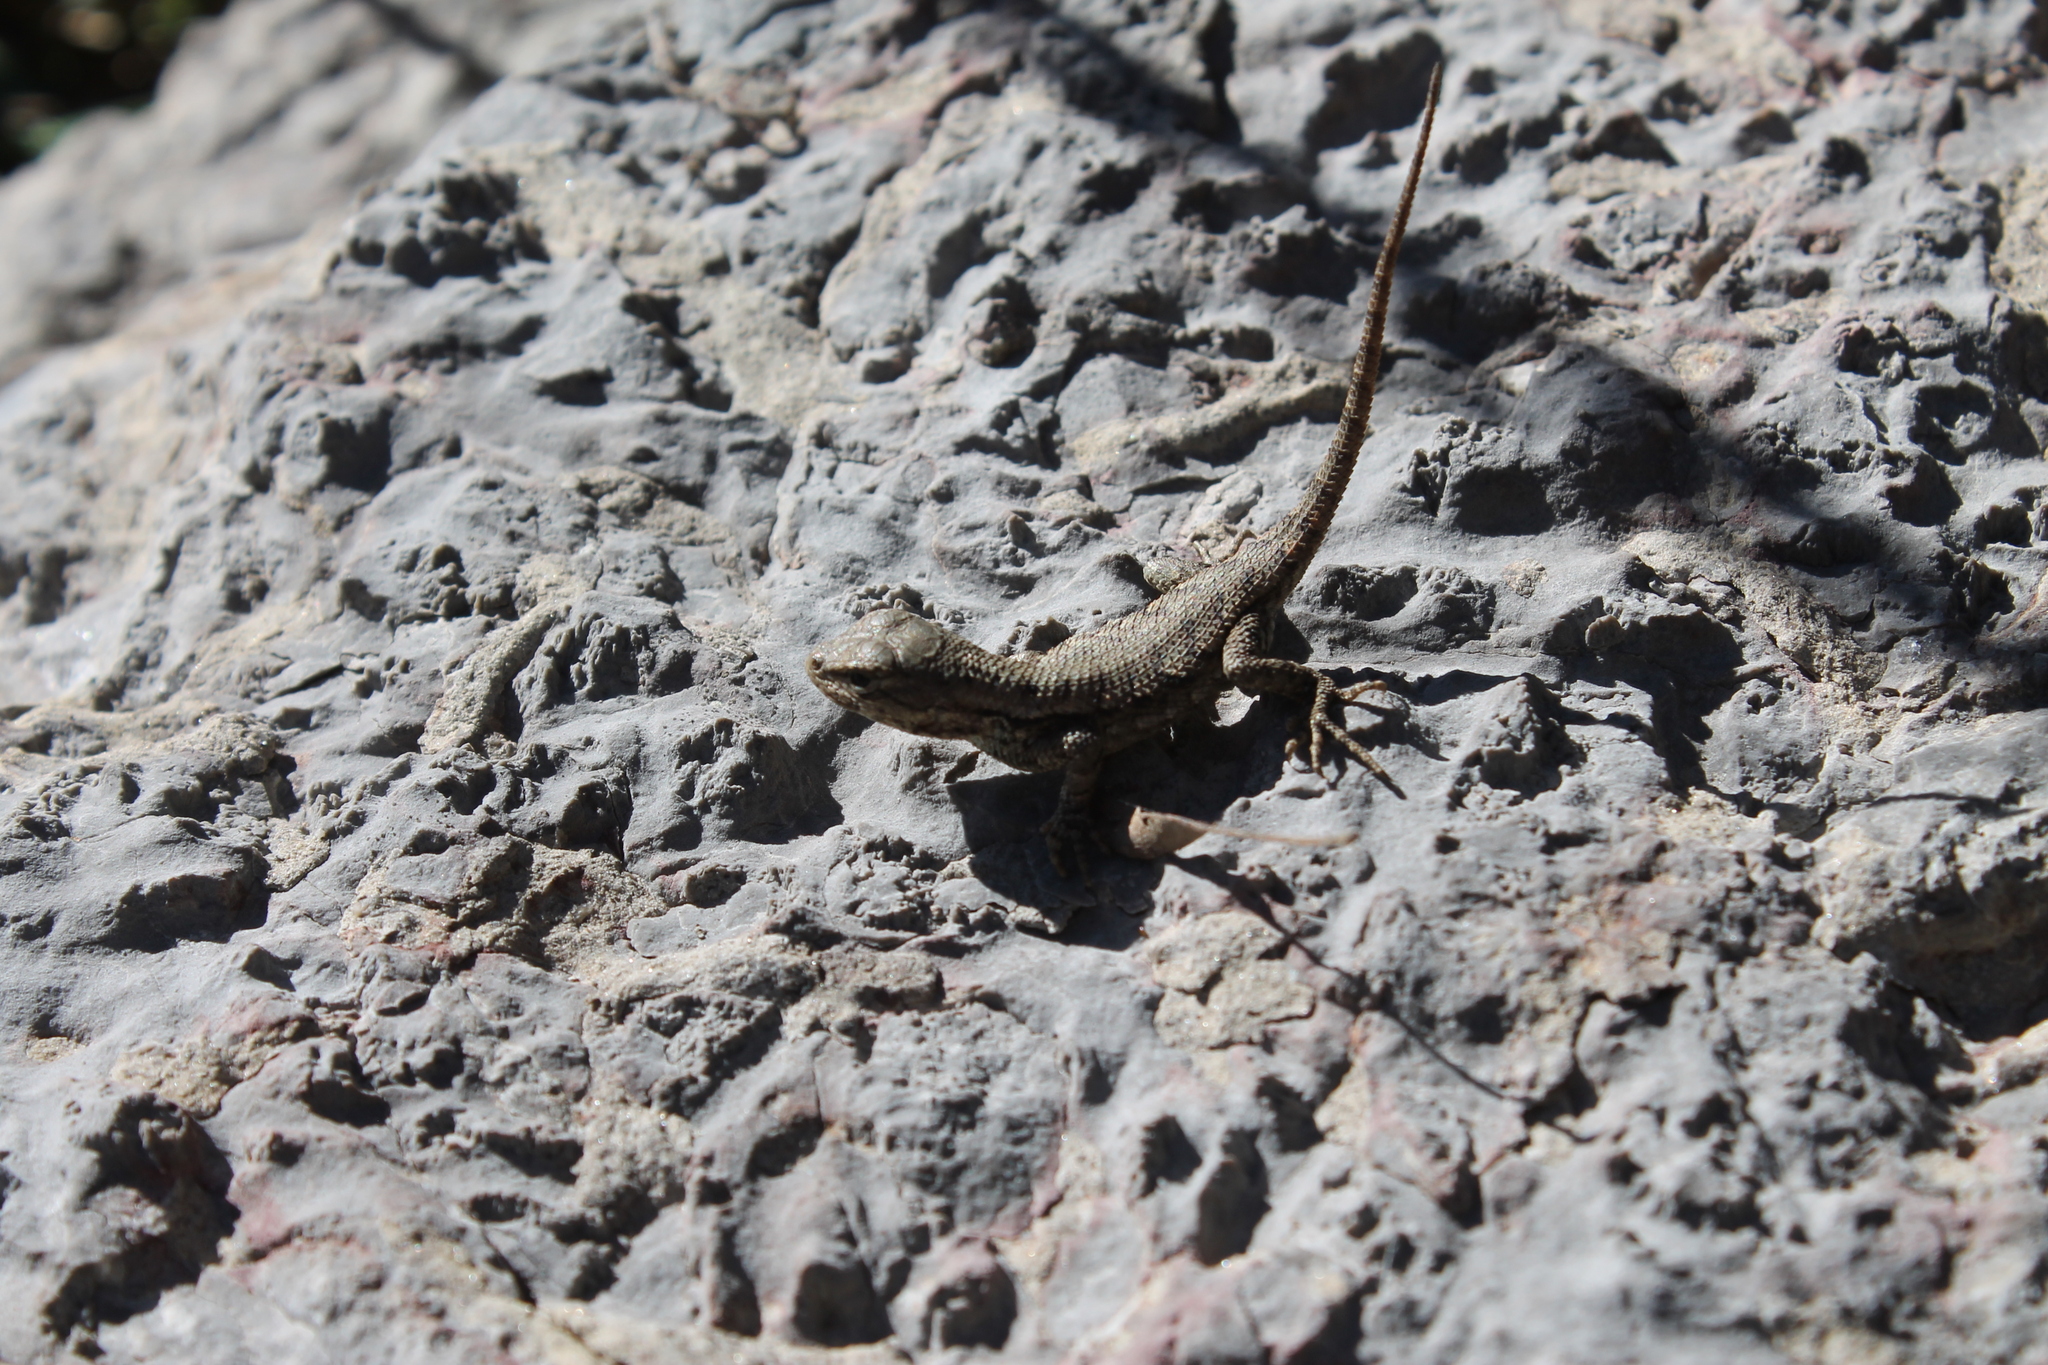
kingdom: Animalia
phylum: Chordata
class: Squamata
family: Phrynosomatidae
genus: Sceloporus
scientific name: Sceloporus undulatus
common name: Eastern fence lizard
